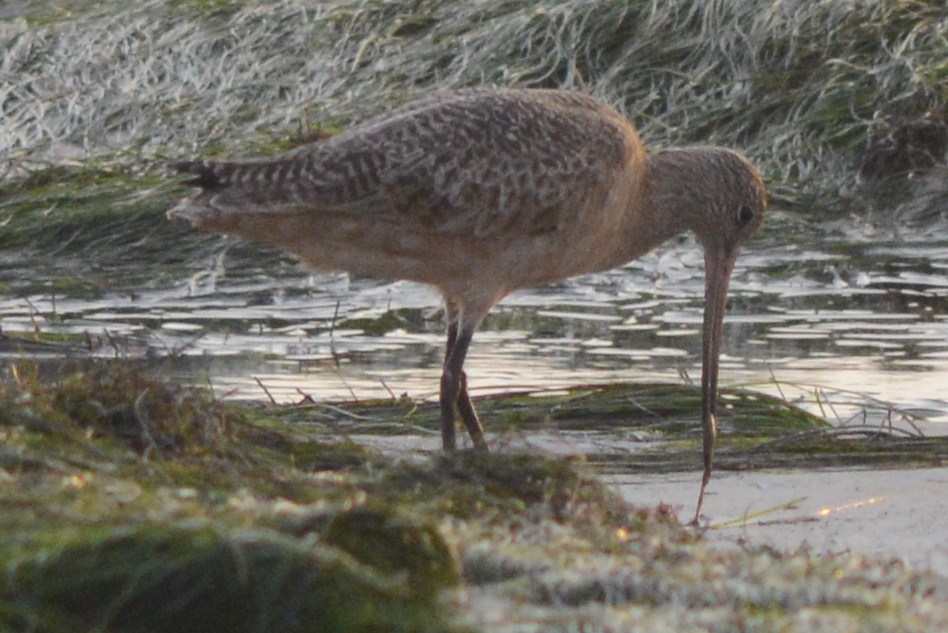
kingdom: Animalia
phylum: Chordata
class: Aves
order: Charadriiformes
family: Scolopacidae
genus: Limosa
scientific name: Limosa fedoa
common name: Marbled godwit
